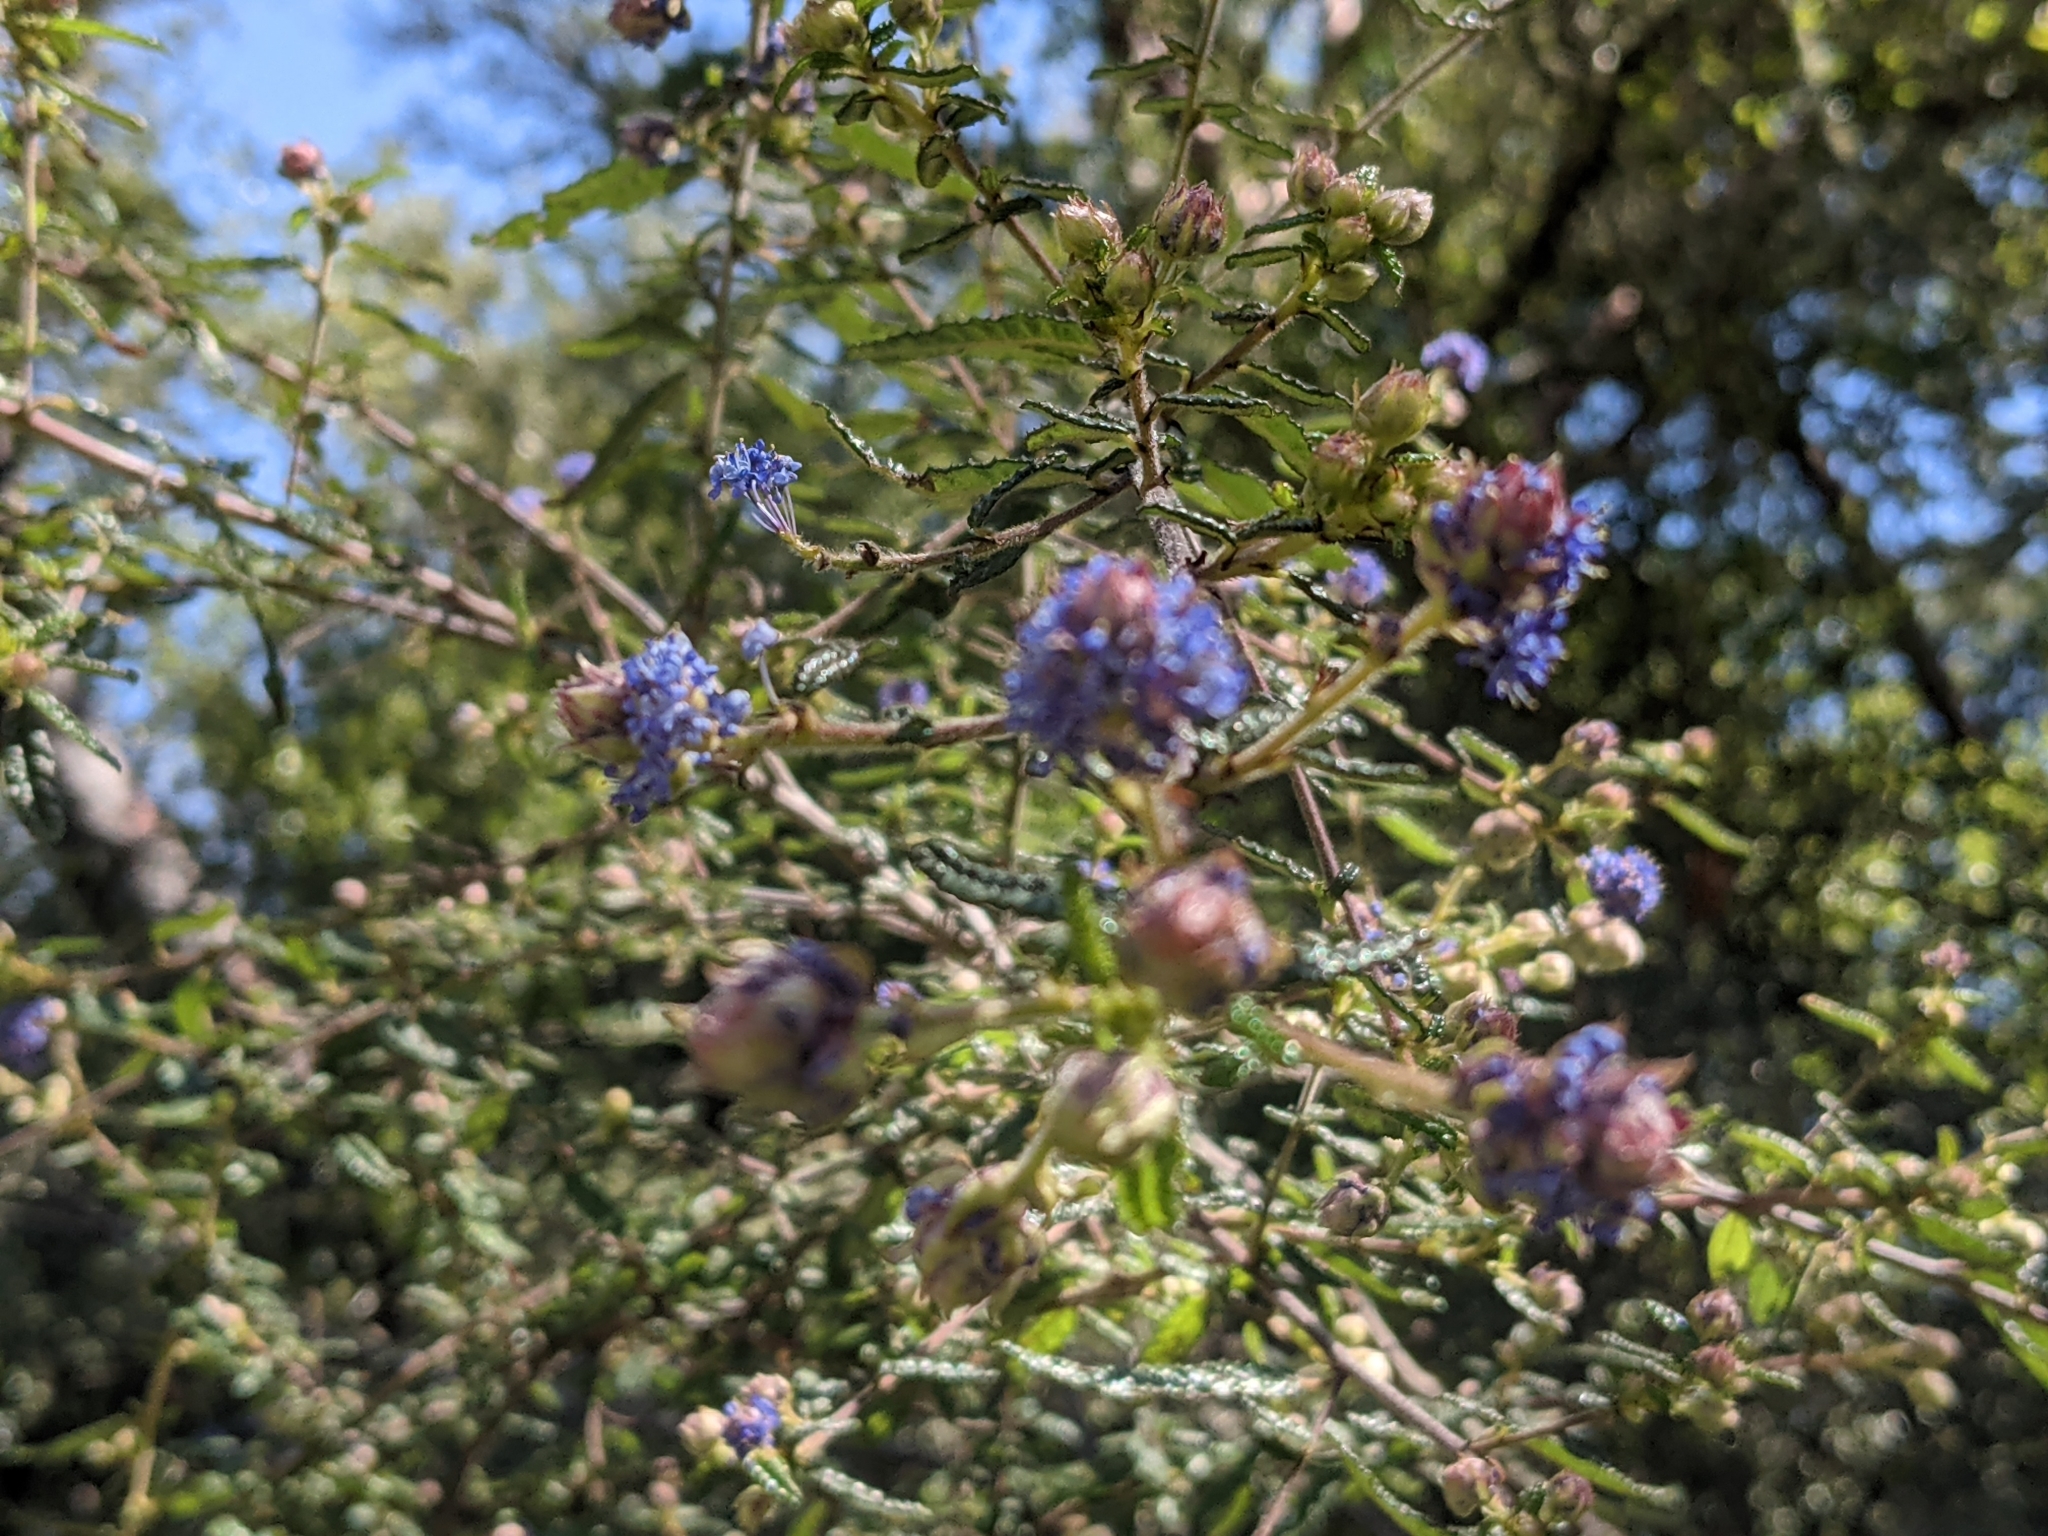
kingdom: Plantae
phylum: Tracheophyta
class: Magnoliopsida
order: Rosales
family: Rhamnaceae
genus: Ceanothus
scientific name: Ceanothus papillosus
